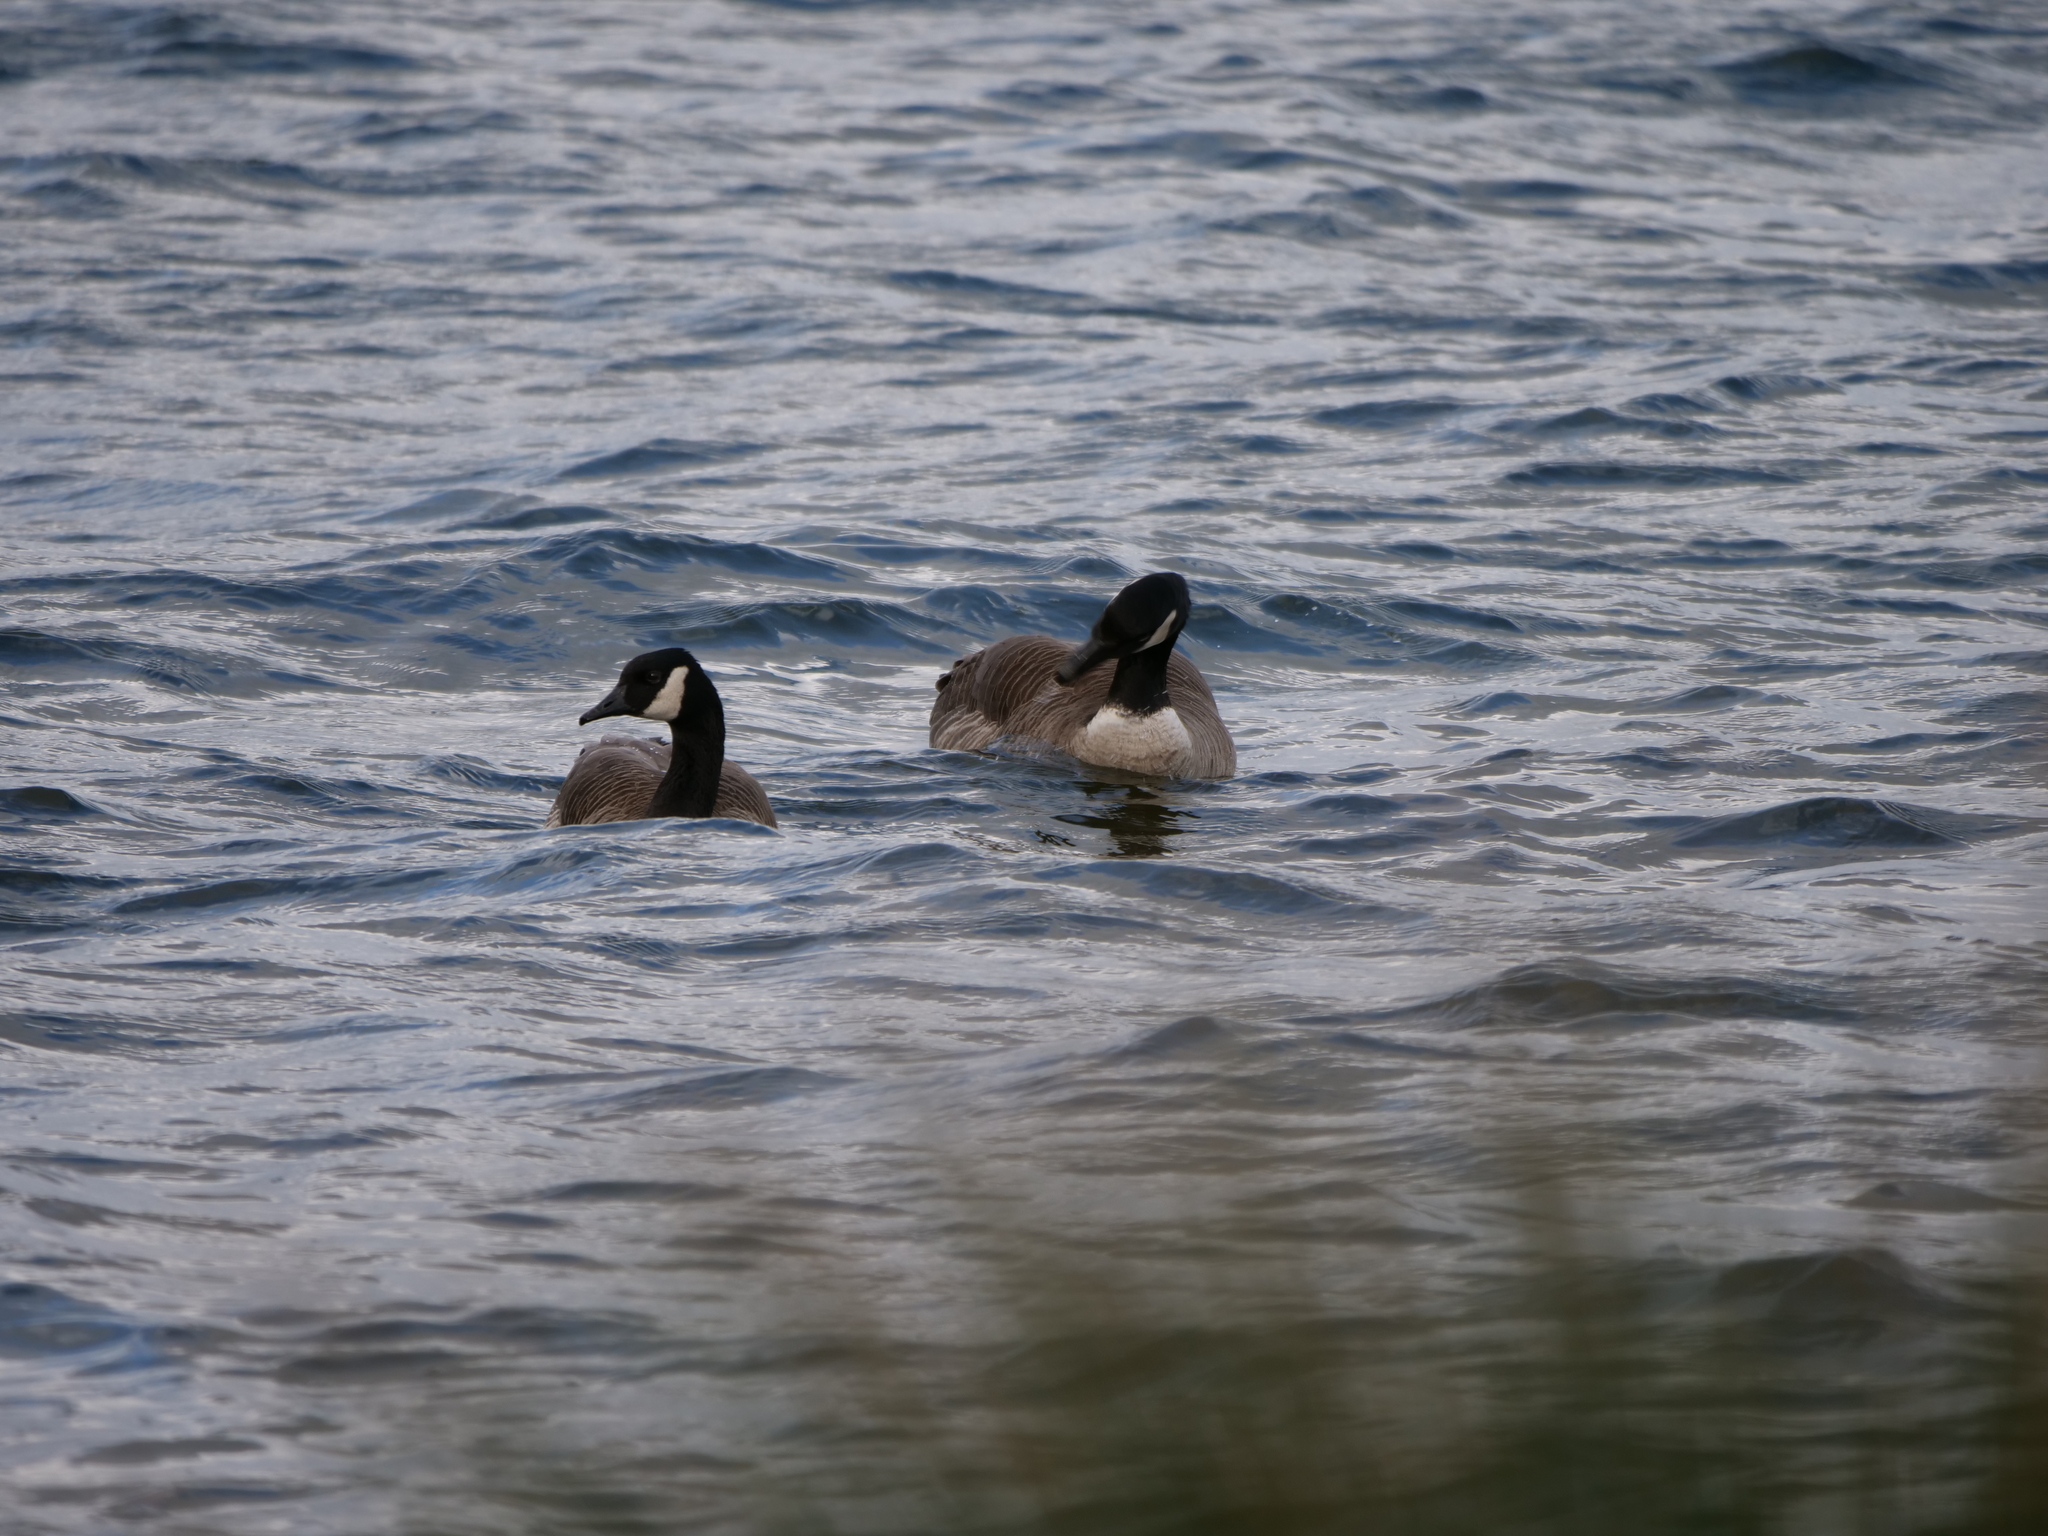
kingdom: Animalia
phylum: Chordata
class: Aves
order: Anseriformes
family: Anatidae
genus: Branta
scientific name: Branta canadensis
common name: Canada goose
